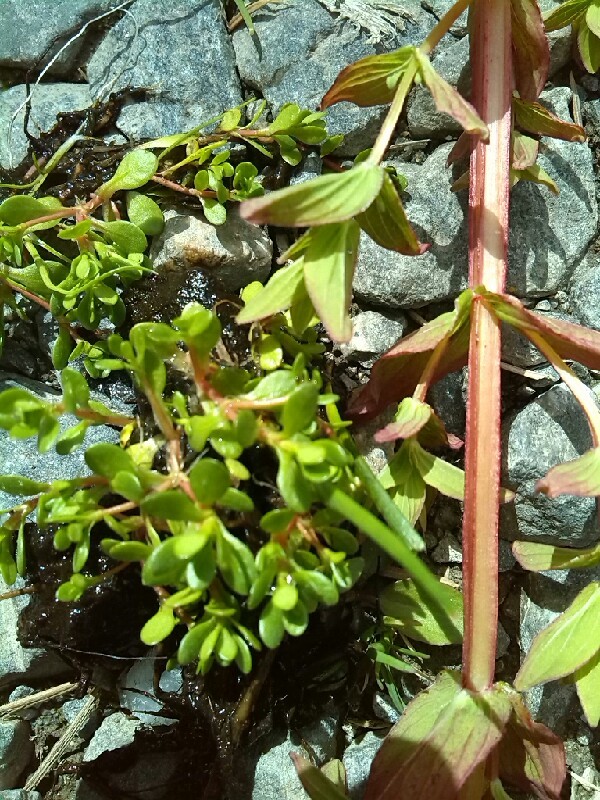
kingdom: Plantae
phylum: Tracheophyta
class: Magnoliopsida
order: Malpighiales
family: Hypericaceae
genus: Hypericum
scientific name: Hypericum tetrapterum
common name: Square-stalked st. john's-wort
